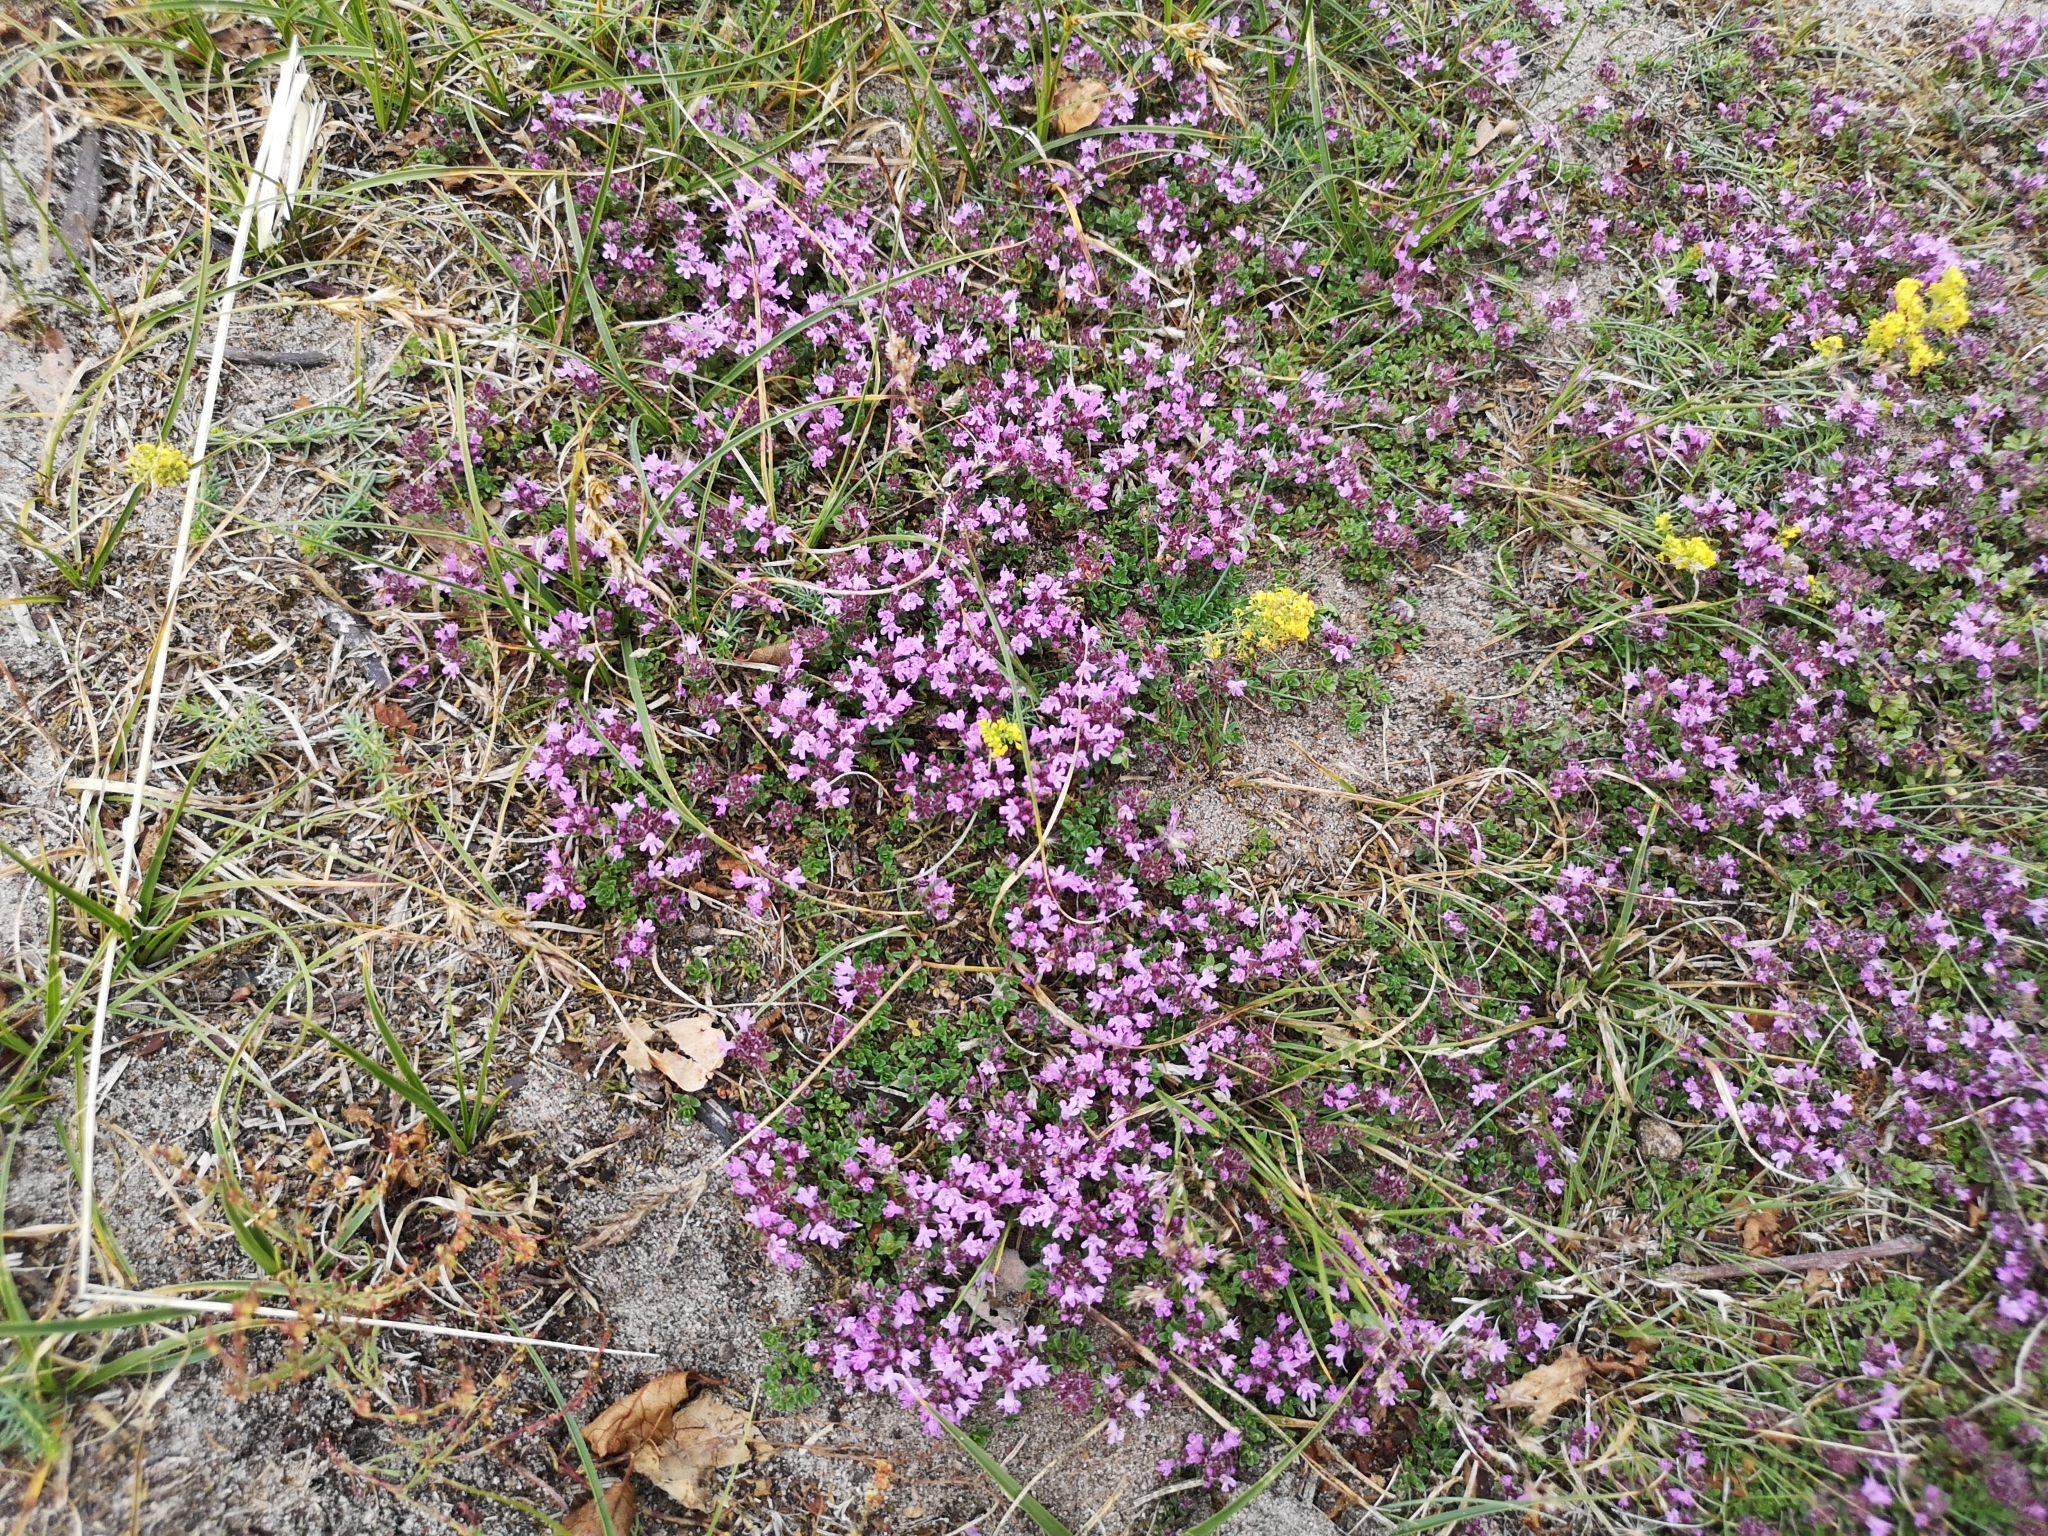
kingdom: Plantae
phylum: Tracheophyta
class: Magnoliopsida
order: Lamiales
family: Lamiaceae
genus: Thymus
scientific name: Thymus serpyllum
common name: Breckland thyme
